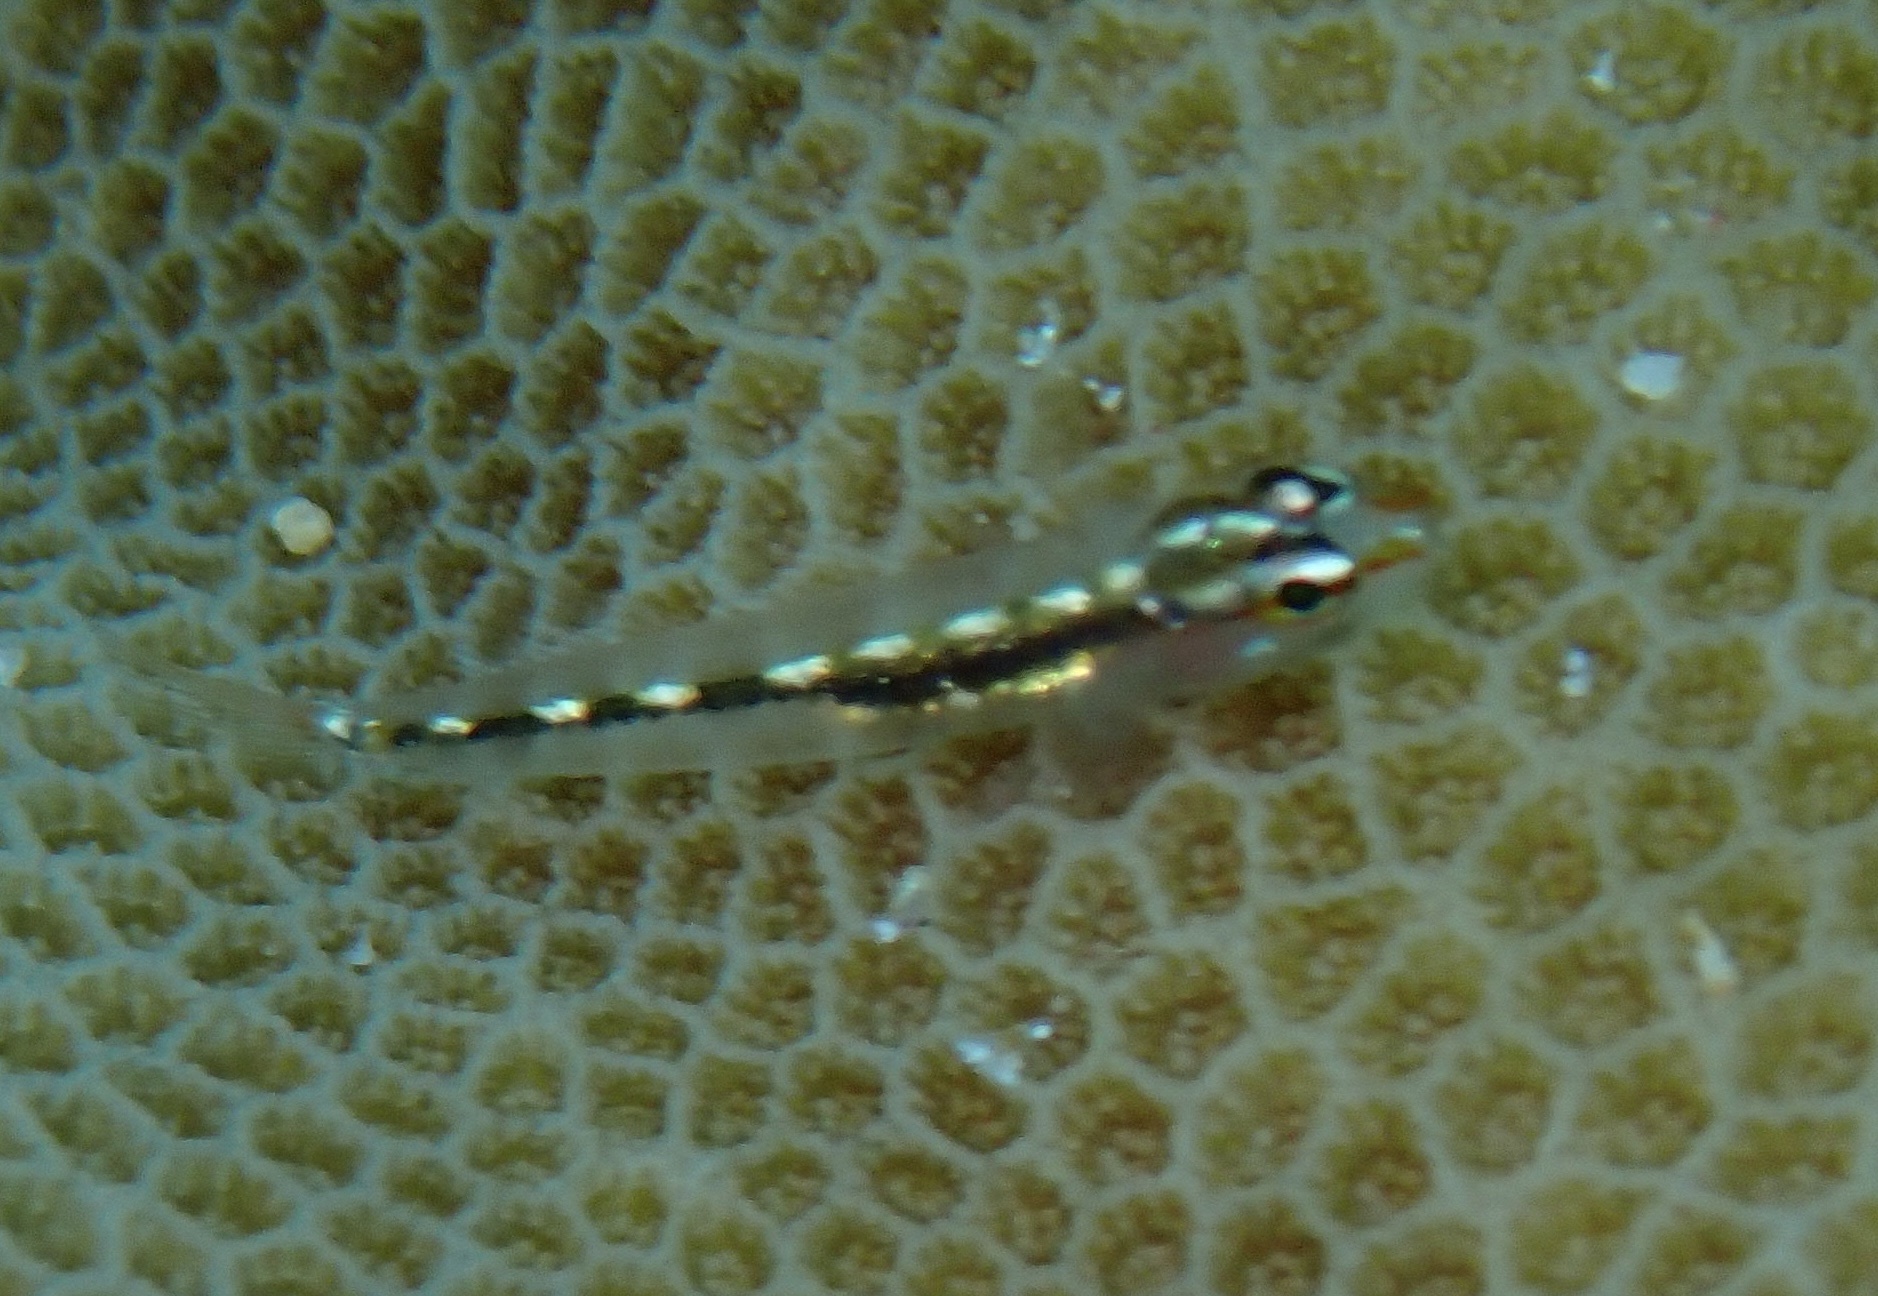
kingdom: Animalia
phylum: Chordata
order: Perciformes
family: Gobiidae
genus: Eviota
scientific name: Eviota sebreei
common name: Sebree's pygmy goby
